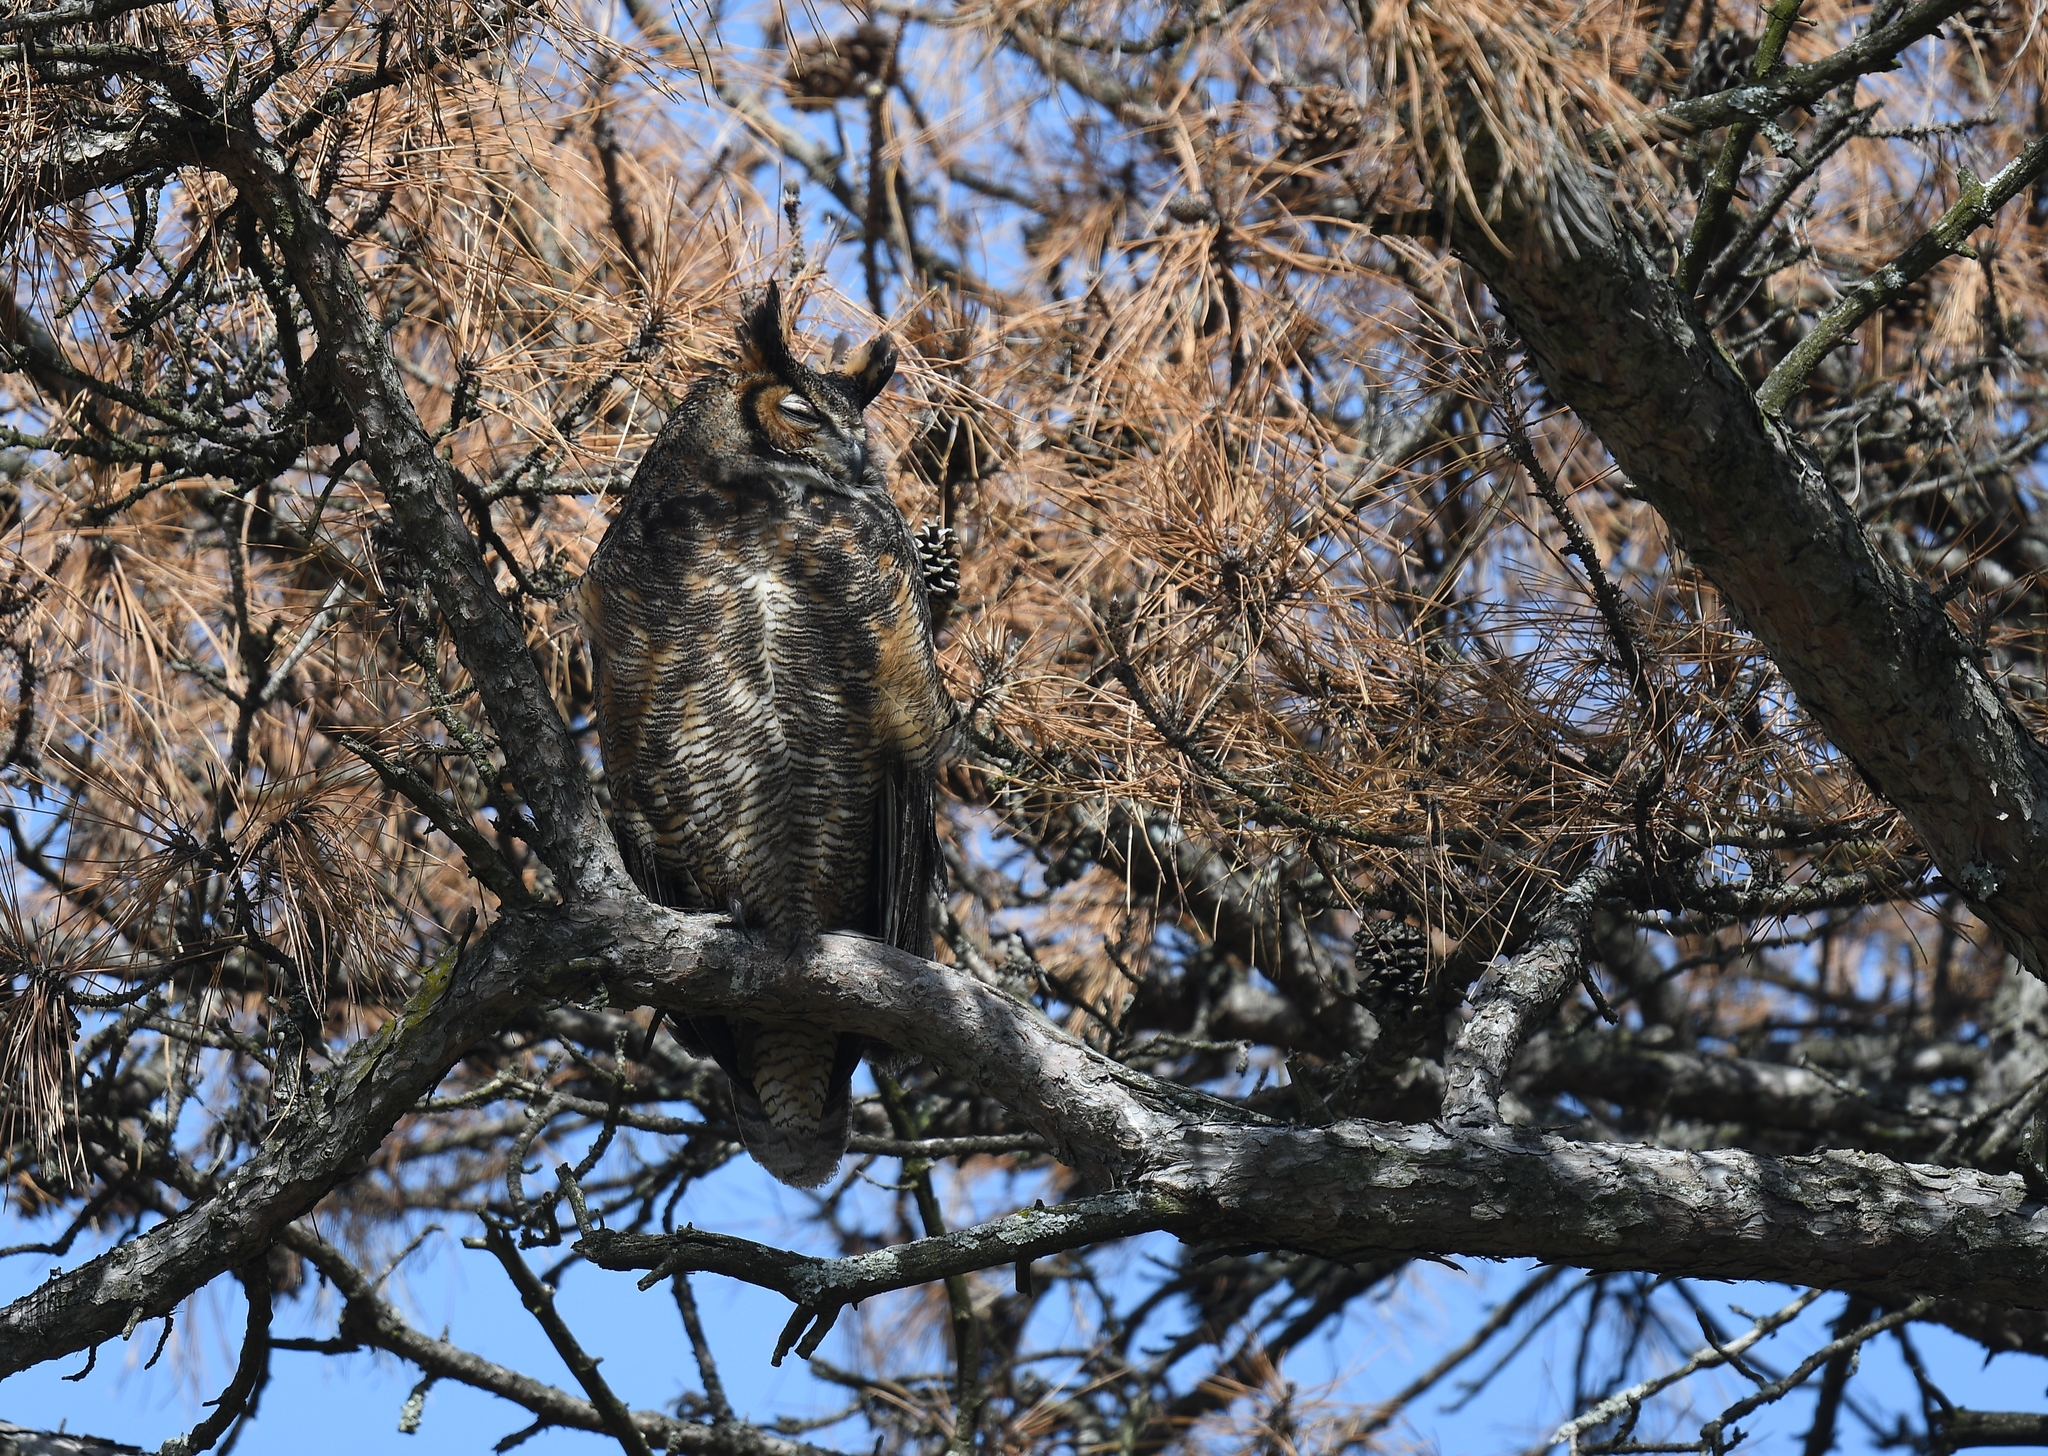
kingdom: Animalia
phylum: Chordata
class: Aves
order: Strigiformes
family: Strigidae
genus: Bubo
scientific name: Bubo virginianus
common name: Great horned owl
